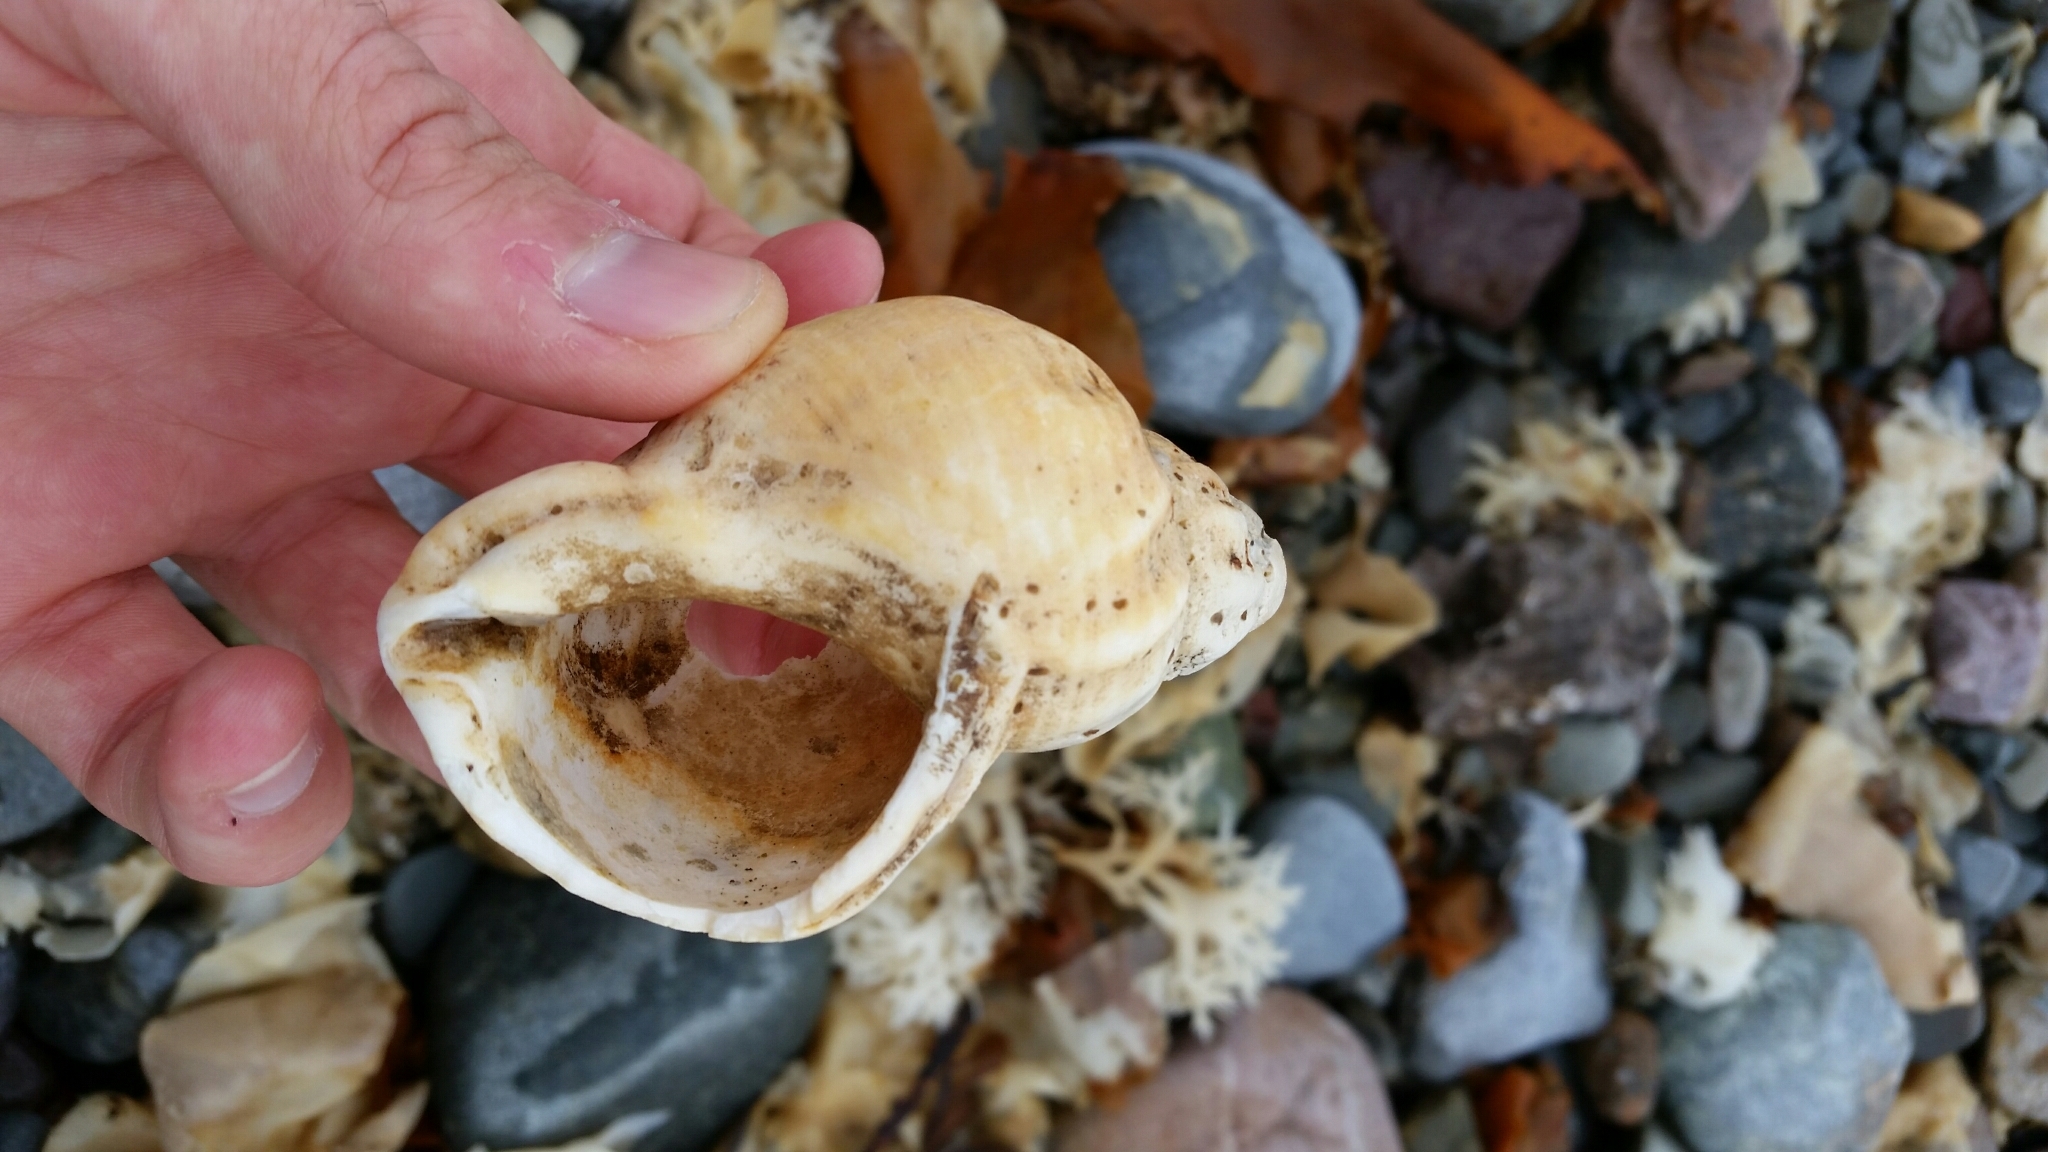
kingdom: Animalia
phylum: Mollusca
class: Gastropoda
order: Neogastropoda
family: Buccinidae
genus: Buccinum
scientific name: Buccinum undatum
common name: Common whelk
